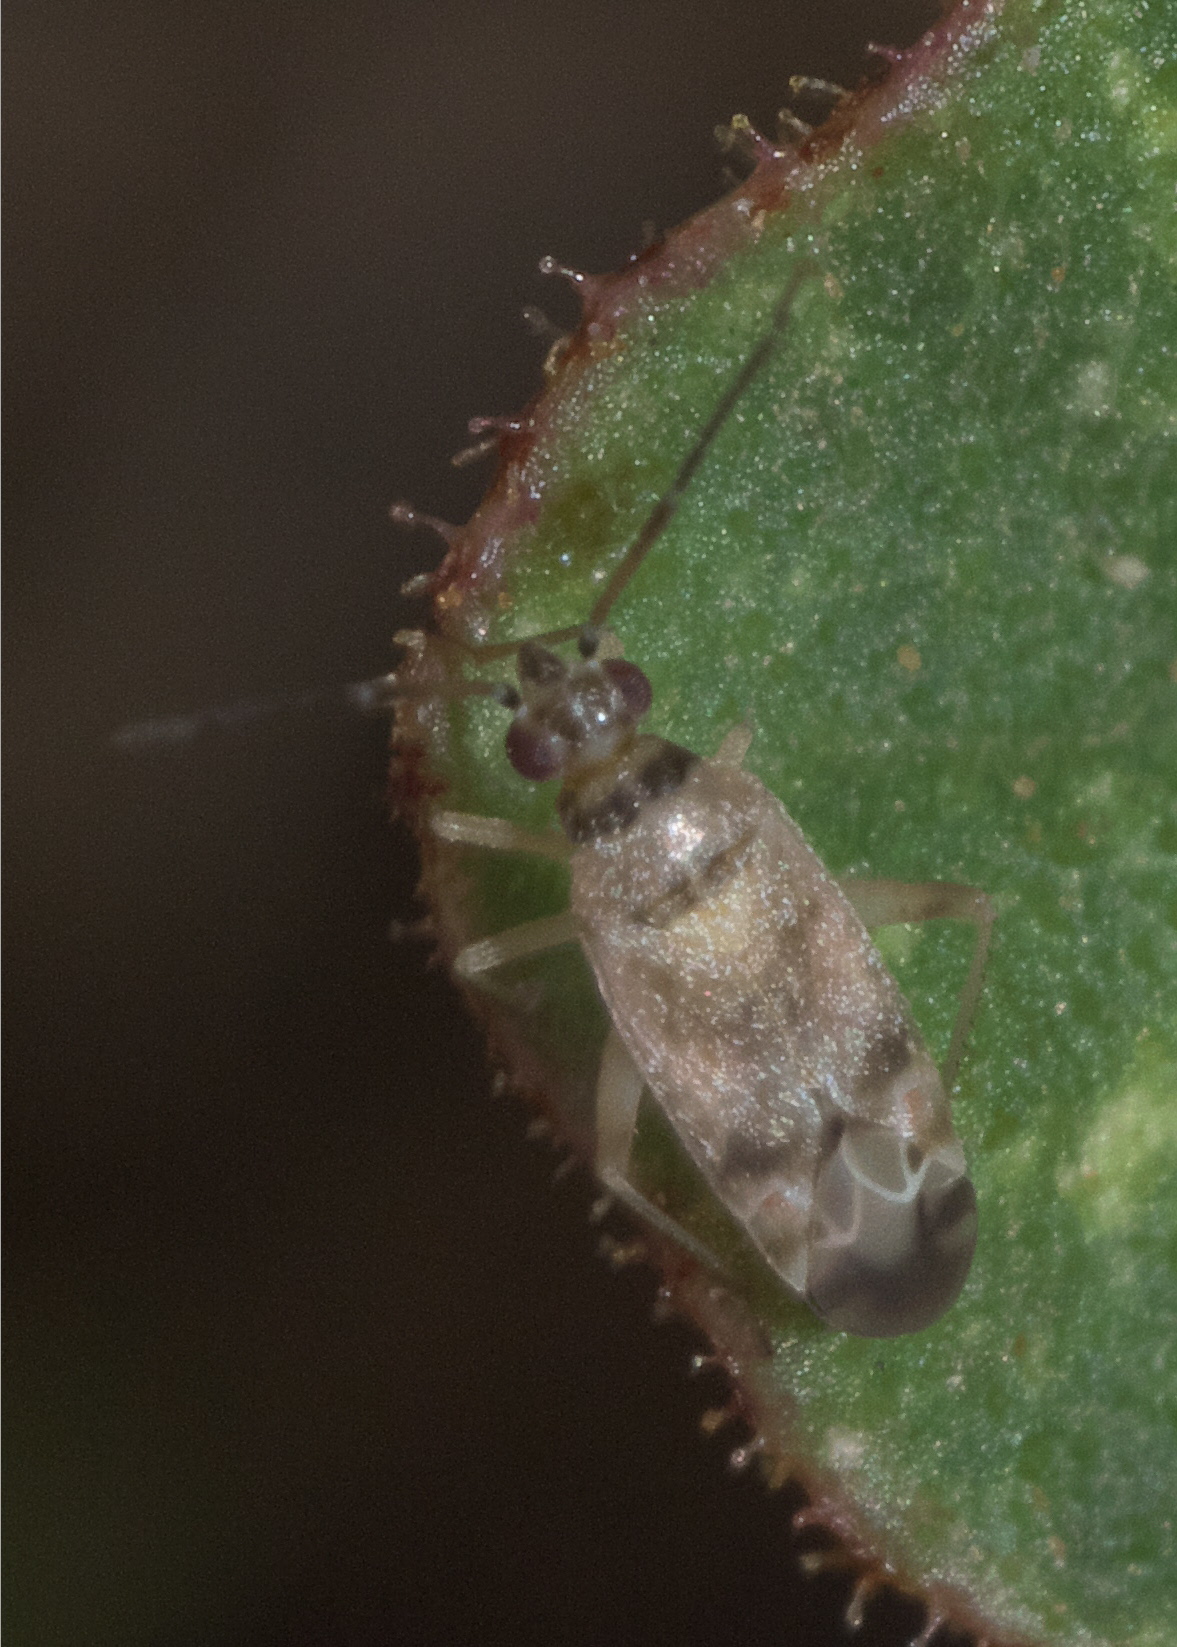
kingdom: Animalia
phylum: Arthropoda
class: Insecta
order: Hemiptera
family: Miridae
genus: Reuteroscopus
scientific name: Reuteroscopus tinctipennis
